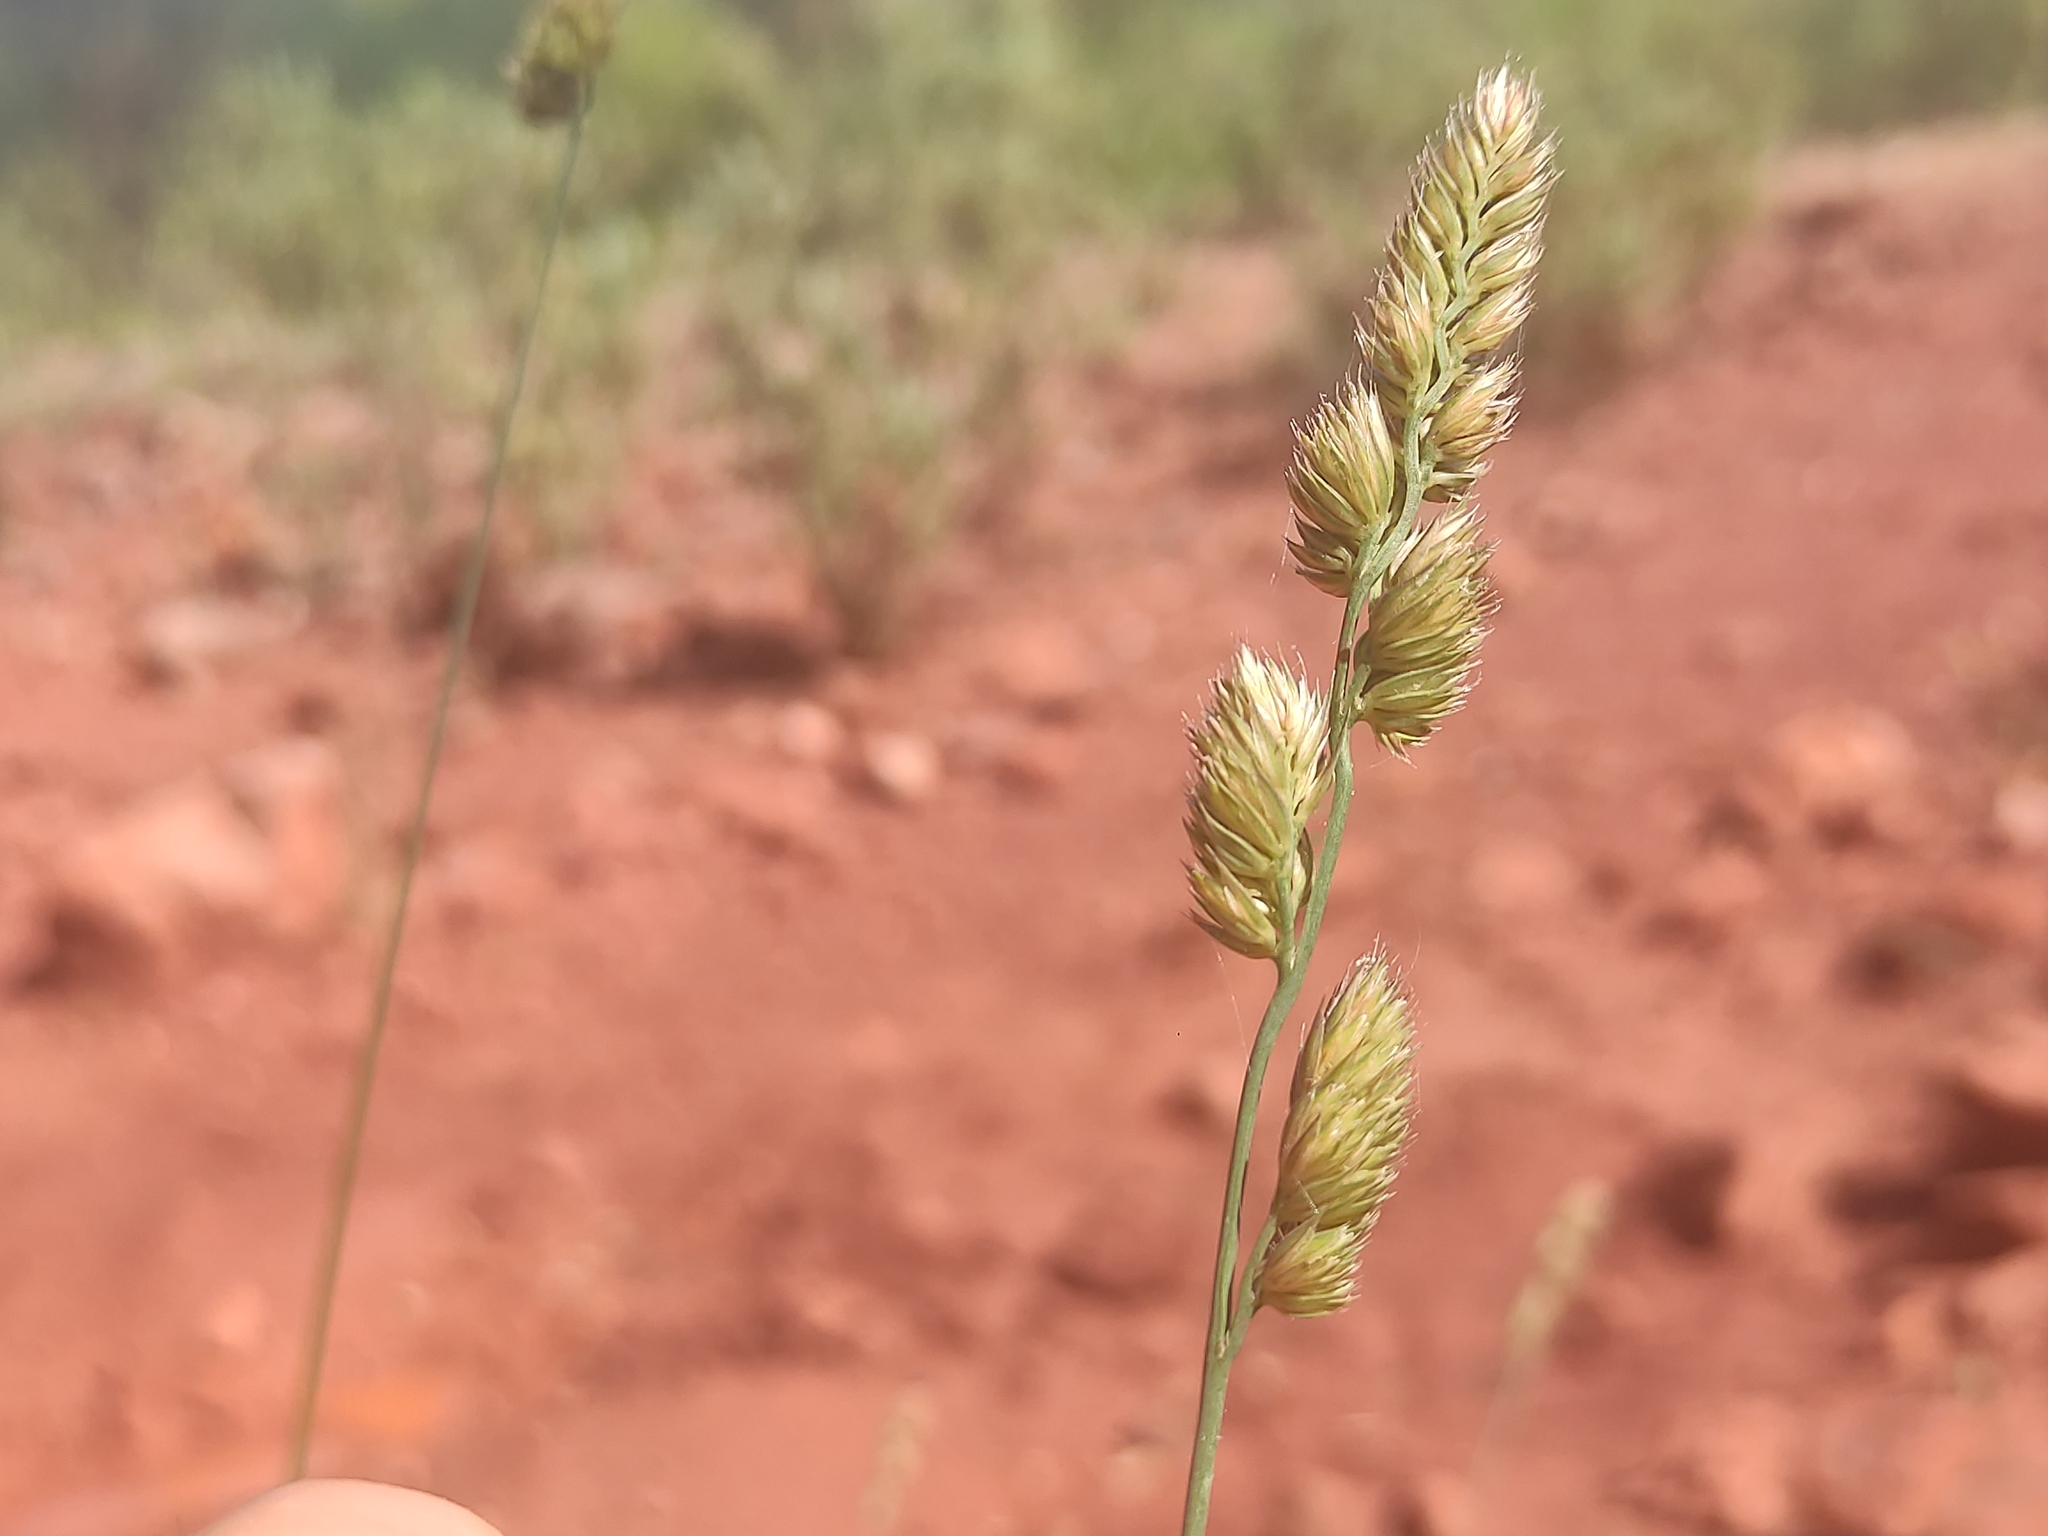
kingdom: Plantae
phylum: Tracheophyta
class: Liliopsida
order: Poales
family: Poaceae
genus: Dactylis
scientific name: Dactylis glomerata
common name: Orchardgrass
